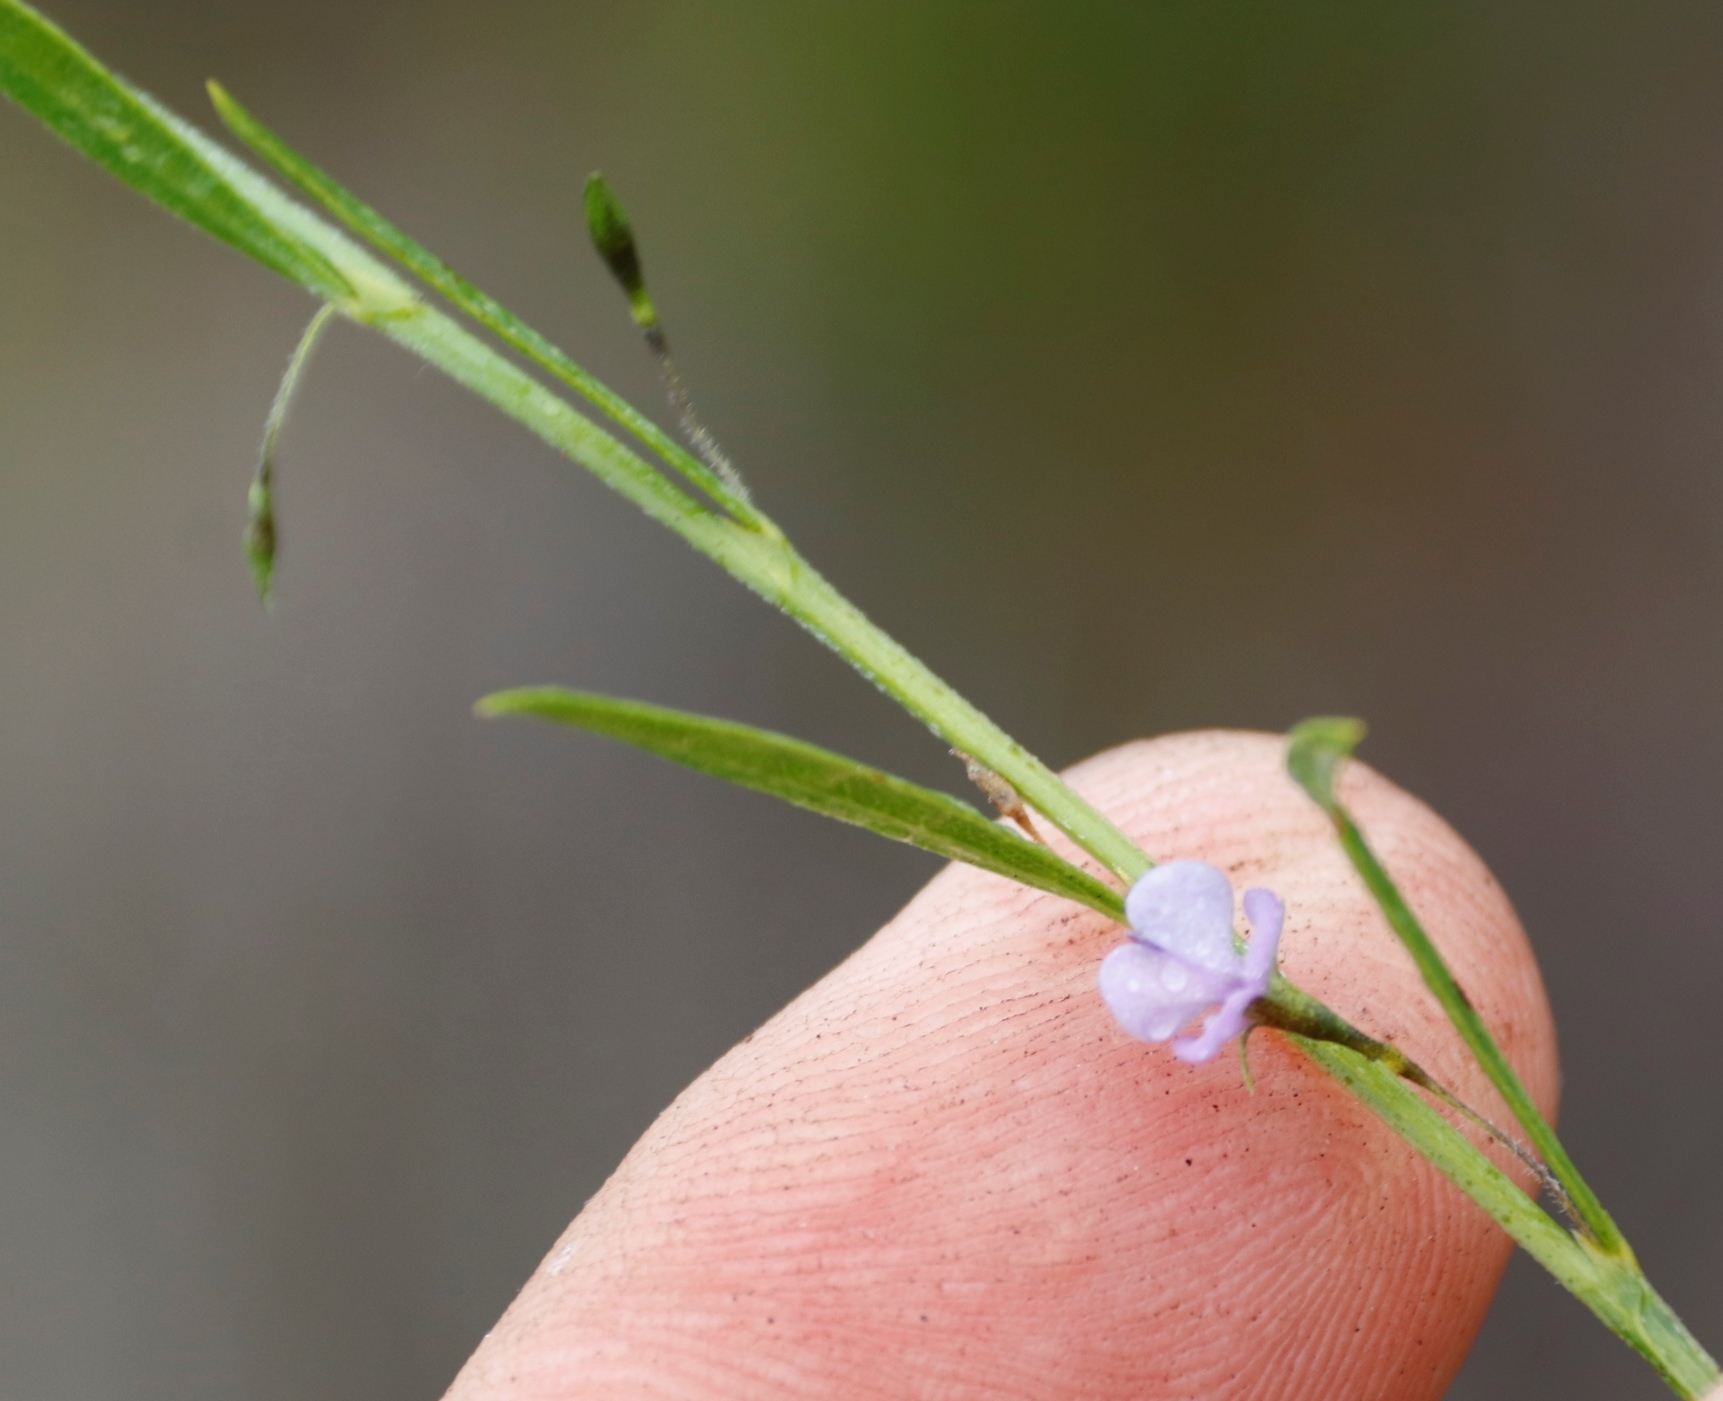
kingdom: Plantae
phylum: Tracheophyta
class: Magnoliopsida
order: Fabales
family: Fabaceae
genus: Psoralea
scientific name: Psoralea laxa
